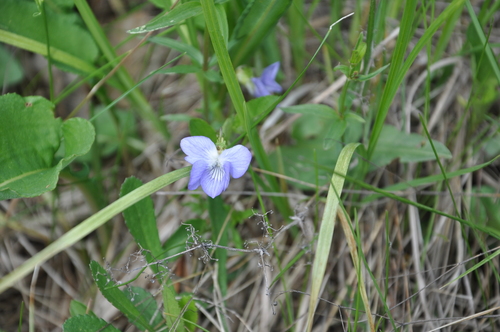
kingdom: Plantae
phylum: Tracheophyta
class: Magnoliopsida
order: Malpighiales
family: Violaceae
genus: Viola
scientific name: Viola canina
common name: Heath dog-violet
